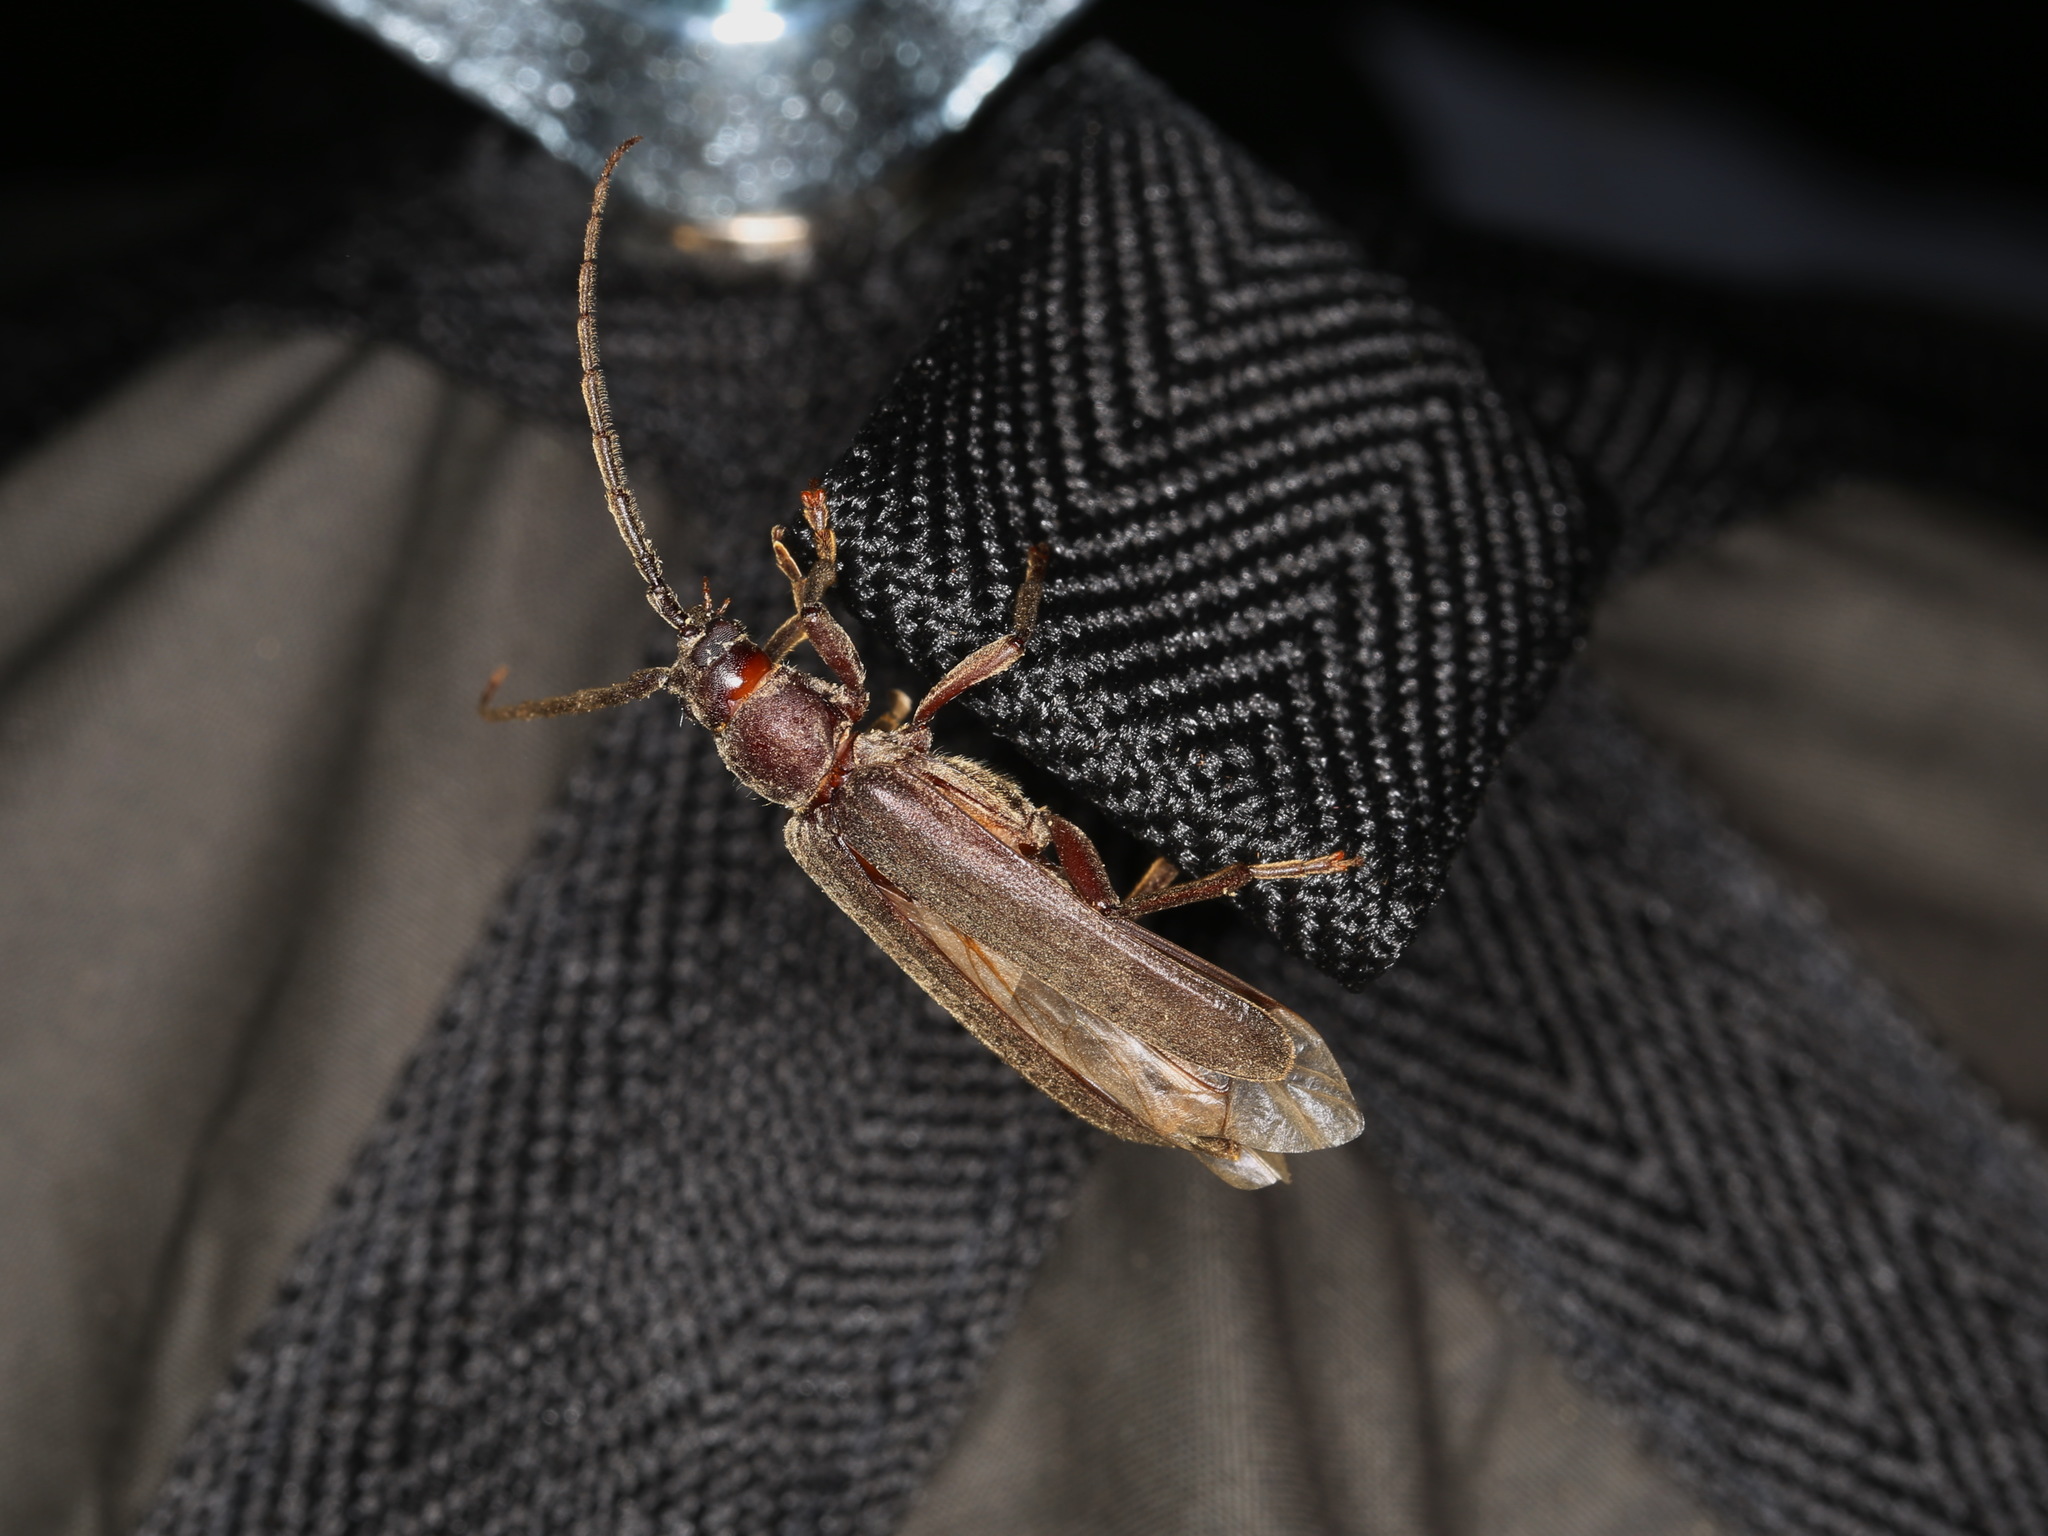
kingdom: Animalia
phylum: Arthropoda
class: Insecta
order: Coleoptera
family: Cerambycidae
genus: Arhopalus
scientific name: Arhopalus rusticus
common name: Rust pine borer
